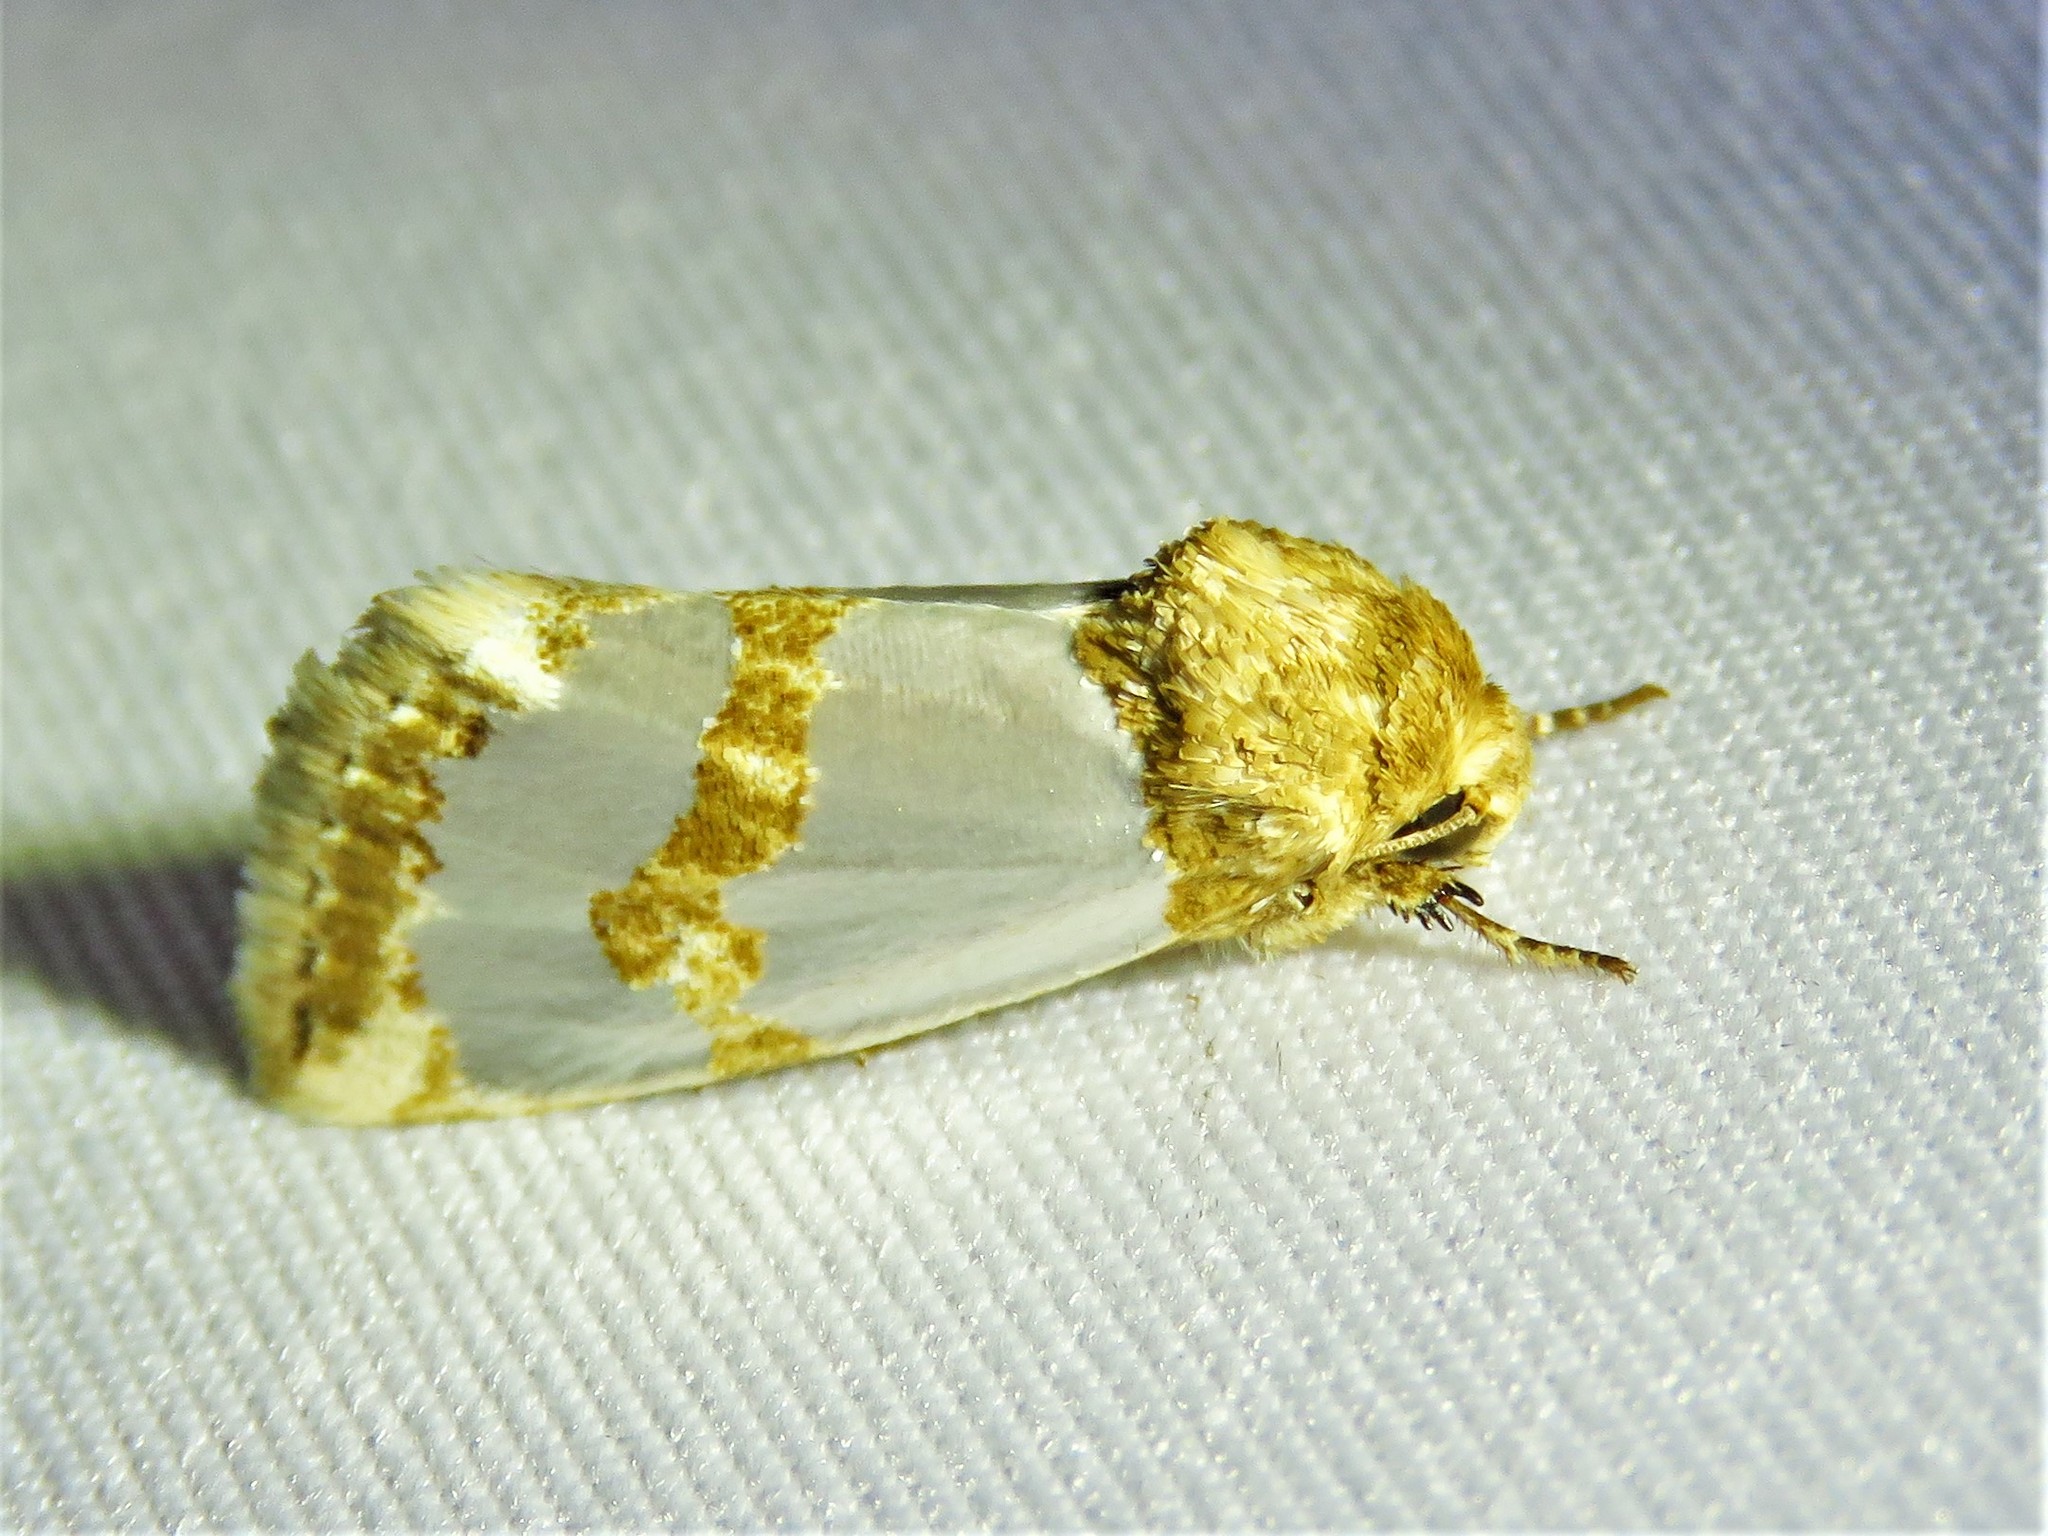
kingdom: Animalia
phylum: Arthropoda
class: Insecta
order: Lepidoptera
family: Noctuidae
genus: Schinia
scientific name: Schinia chrysellus
